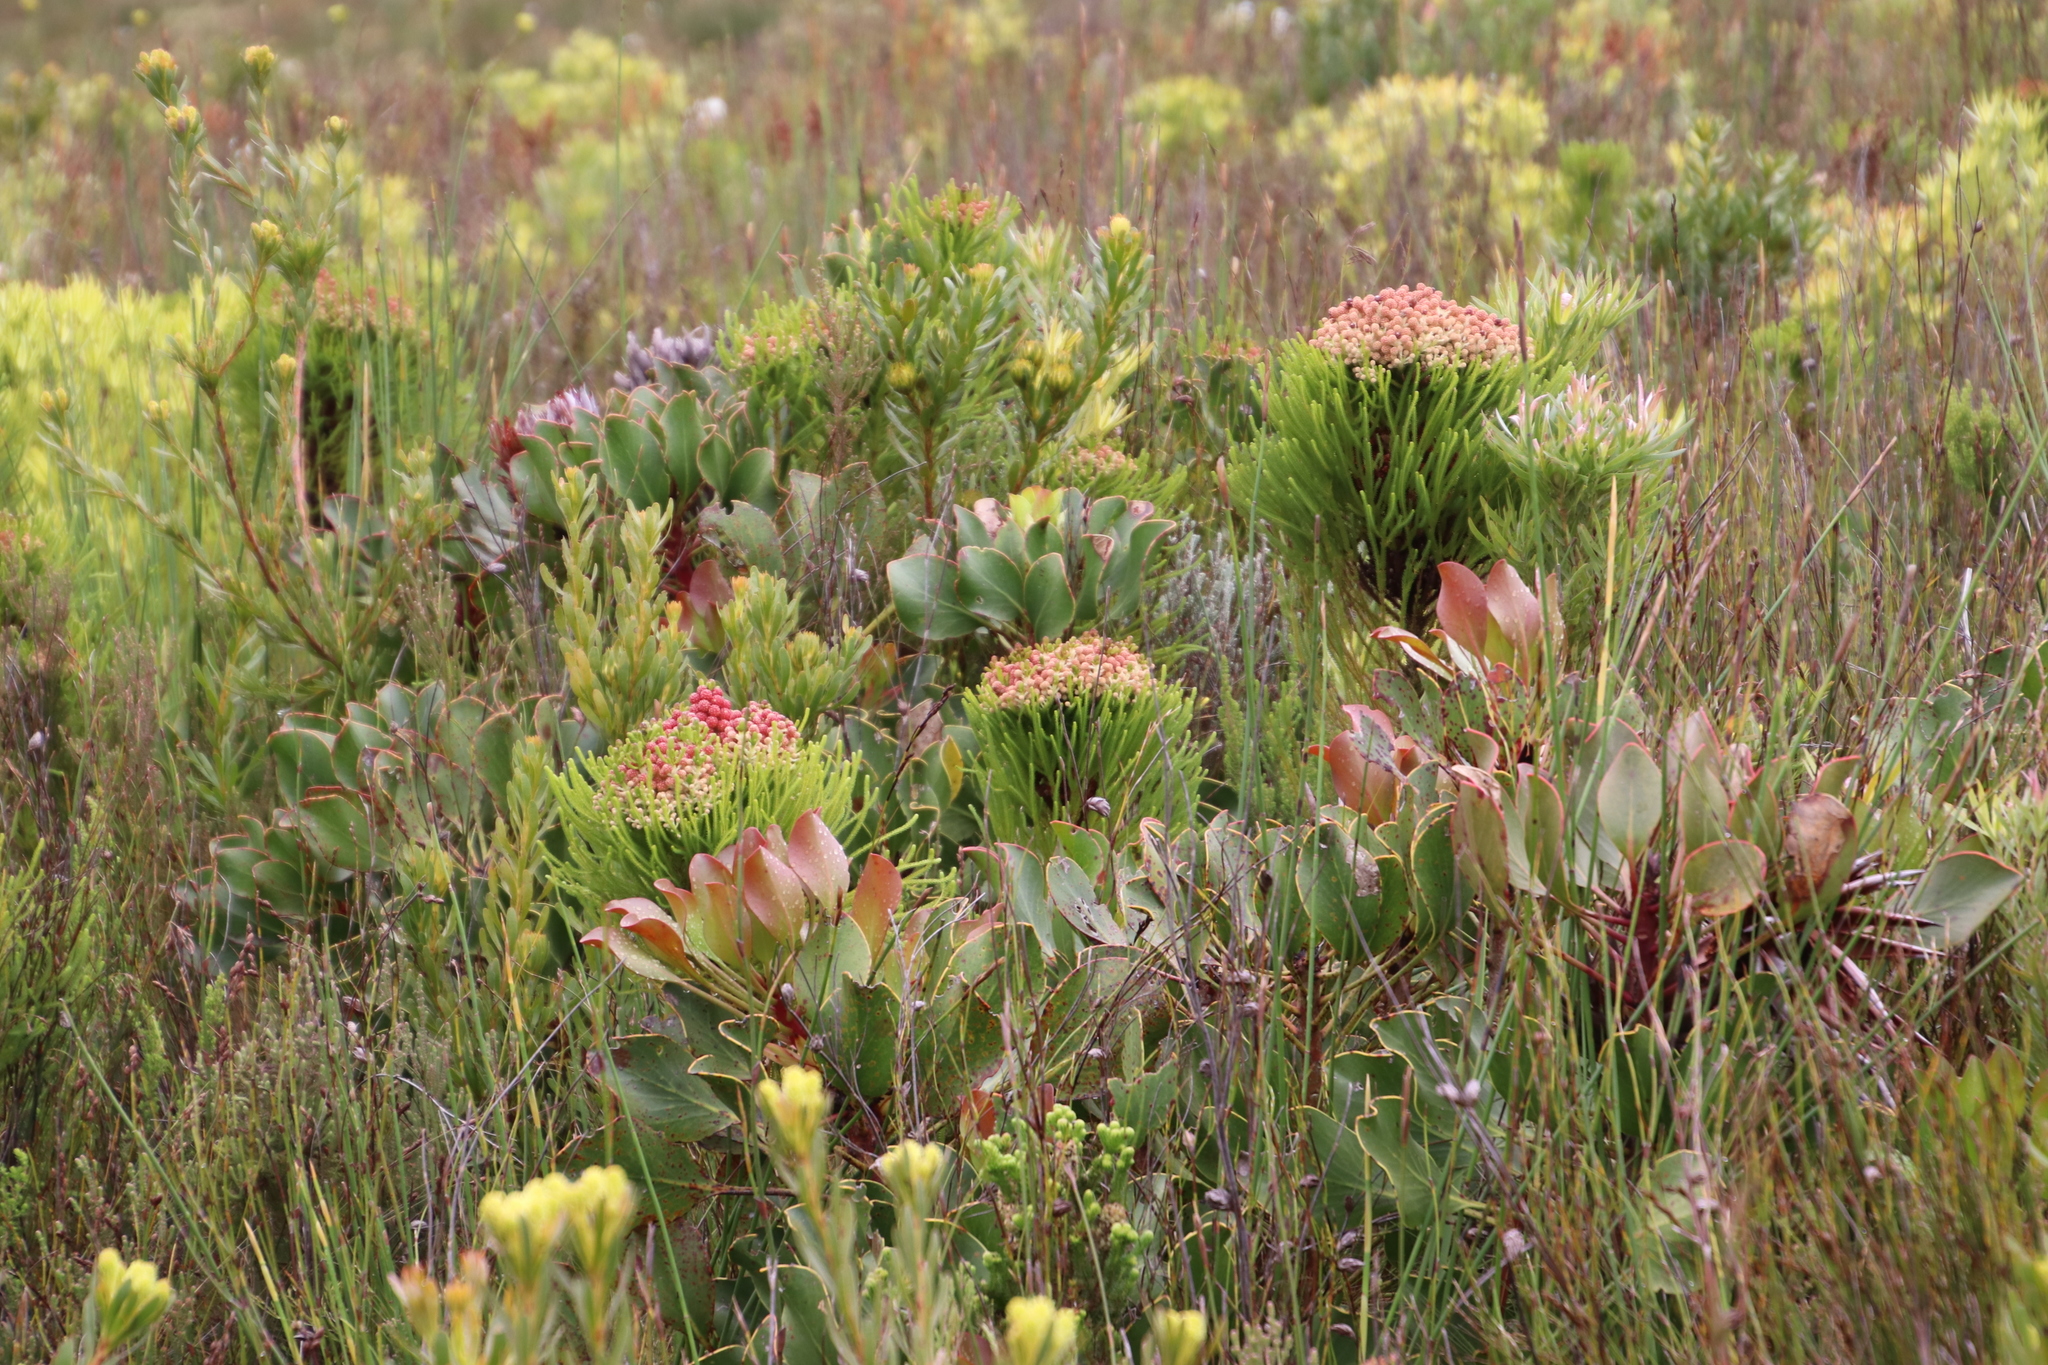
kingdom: Plantae
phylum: Tracheophyta
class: Magnoliopsida
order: Proteales
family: Proteaceae
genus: Protea
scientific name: Protea cynaroides
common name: King protea
